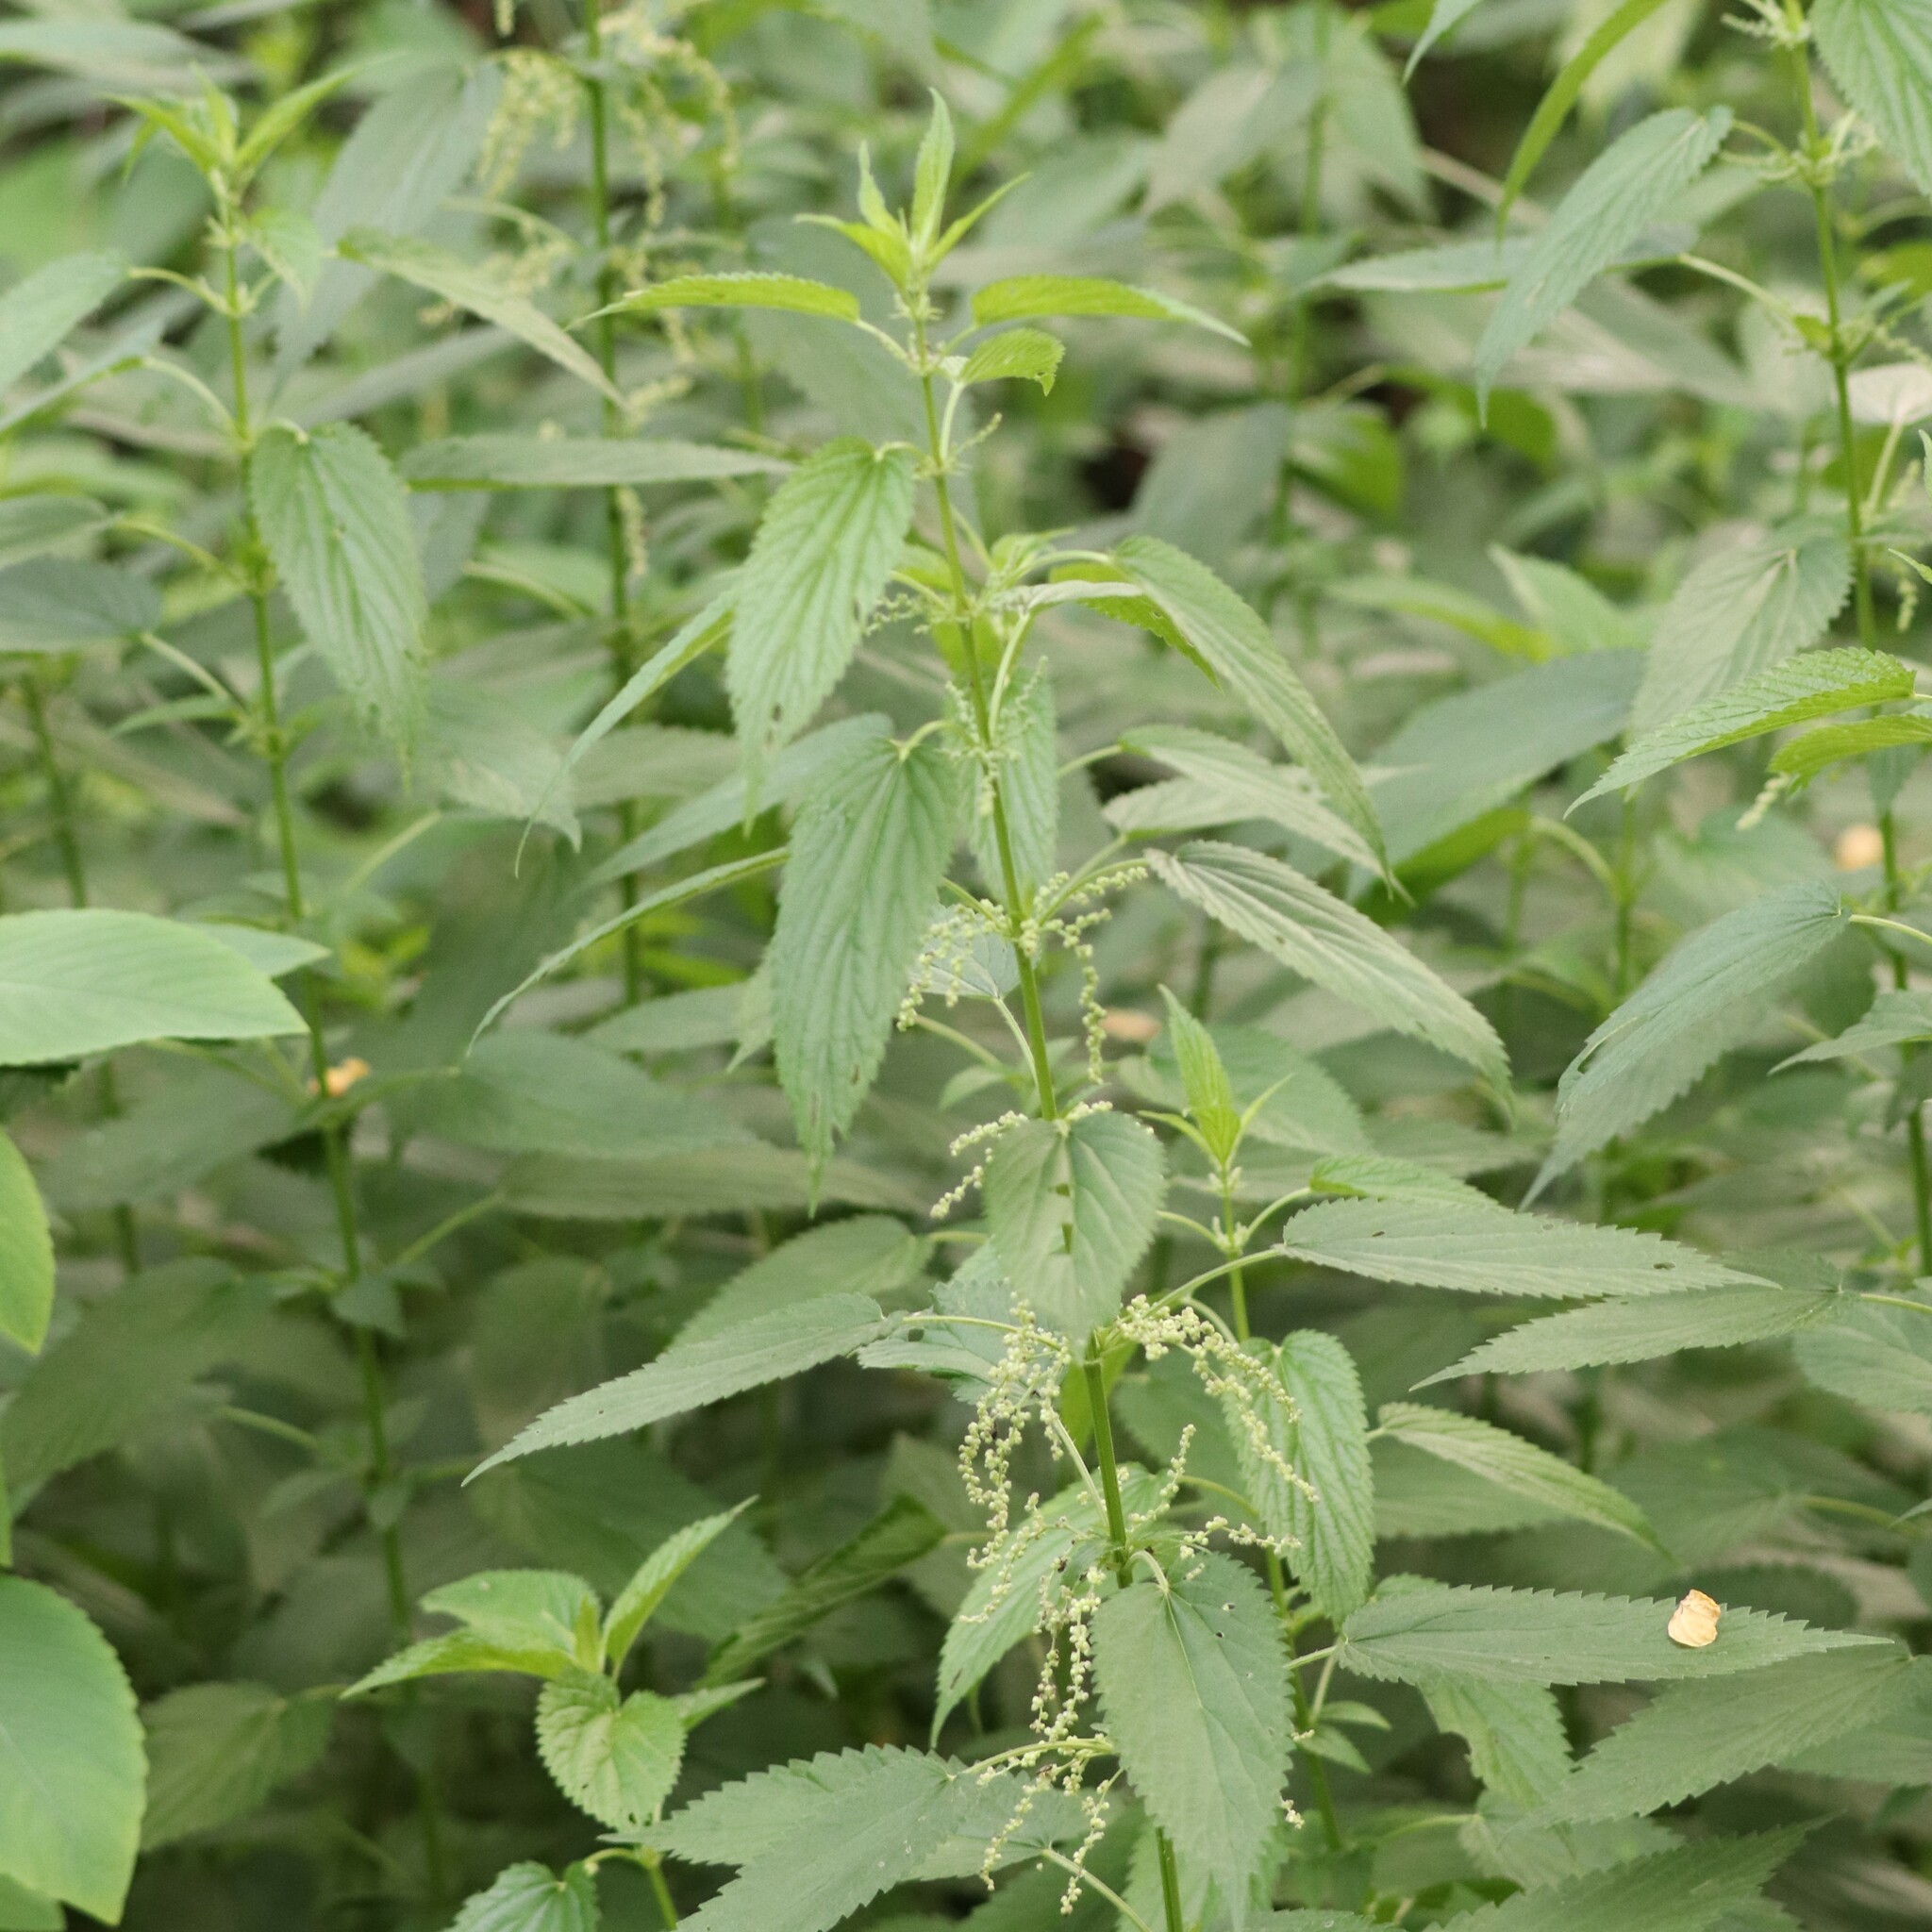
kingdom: Plantae
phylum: Tracheophyta
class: Magnoliopsida
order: Rosales
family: Urticaceae
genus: Urtica
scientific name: Urtica dioica
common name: Common nettle
